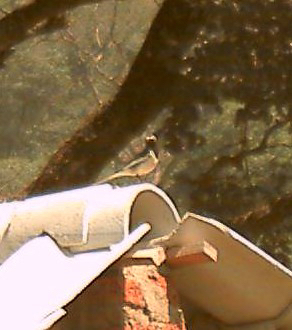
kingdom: Animalia
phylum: Chordata
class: Aves
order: Passeriformes
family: Motacillidae
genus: Motacilla
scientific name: Motacilla maderaspatensis
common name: White-browed wagtail
